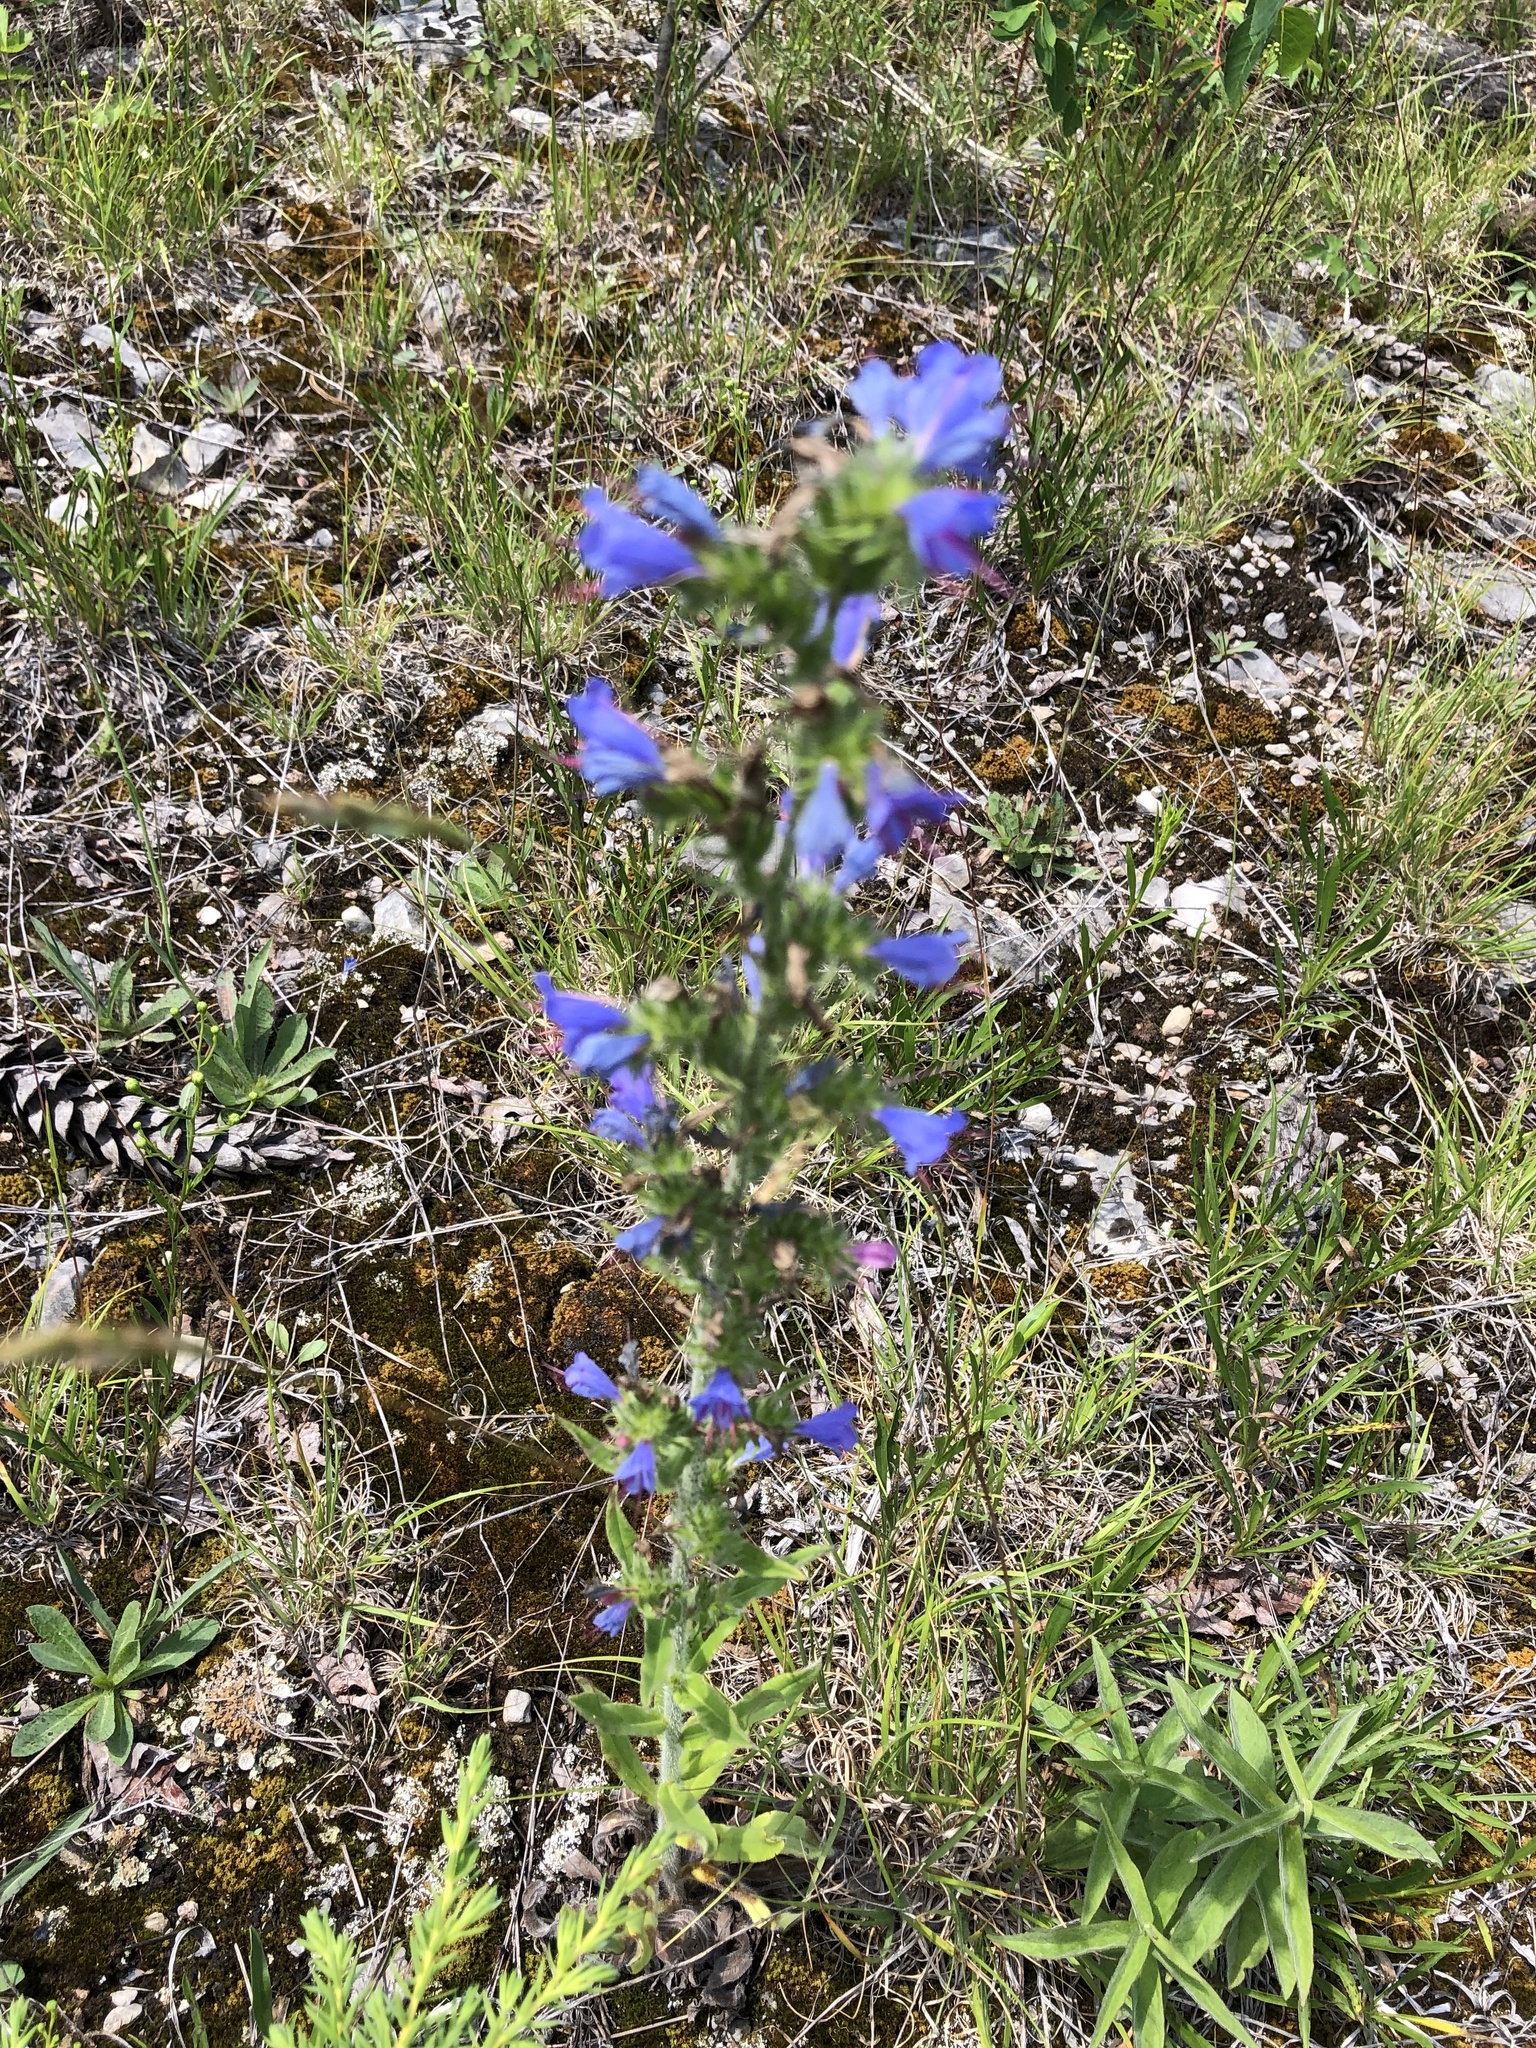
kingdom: Plantae
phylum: Tracheophyta
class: Magnoliopsida
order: Boraginales
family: Boraginaceae
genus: Echium
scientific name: Echium vulgare
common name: Common viper's bugloss
